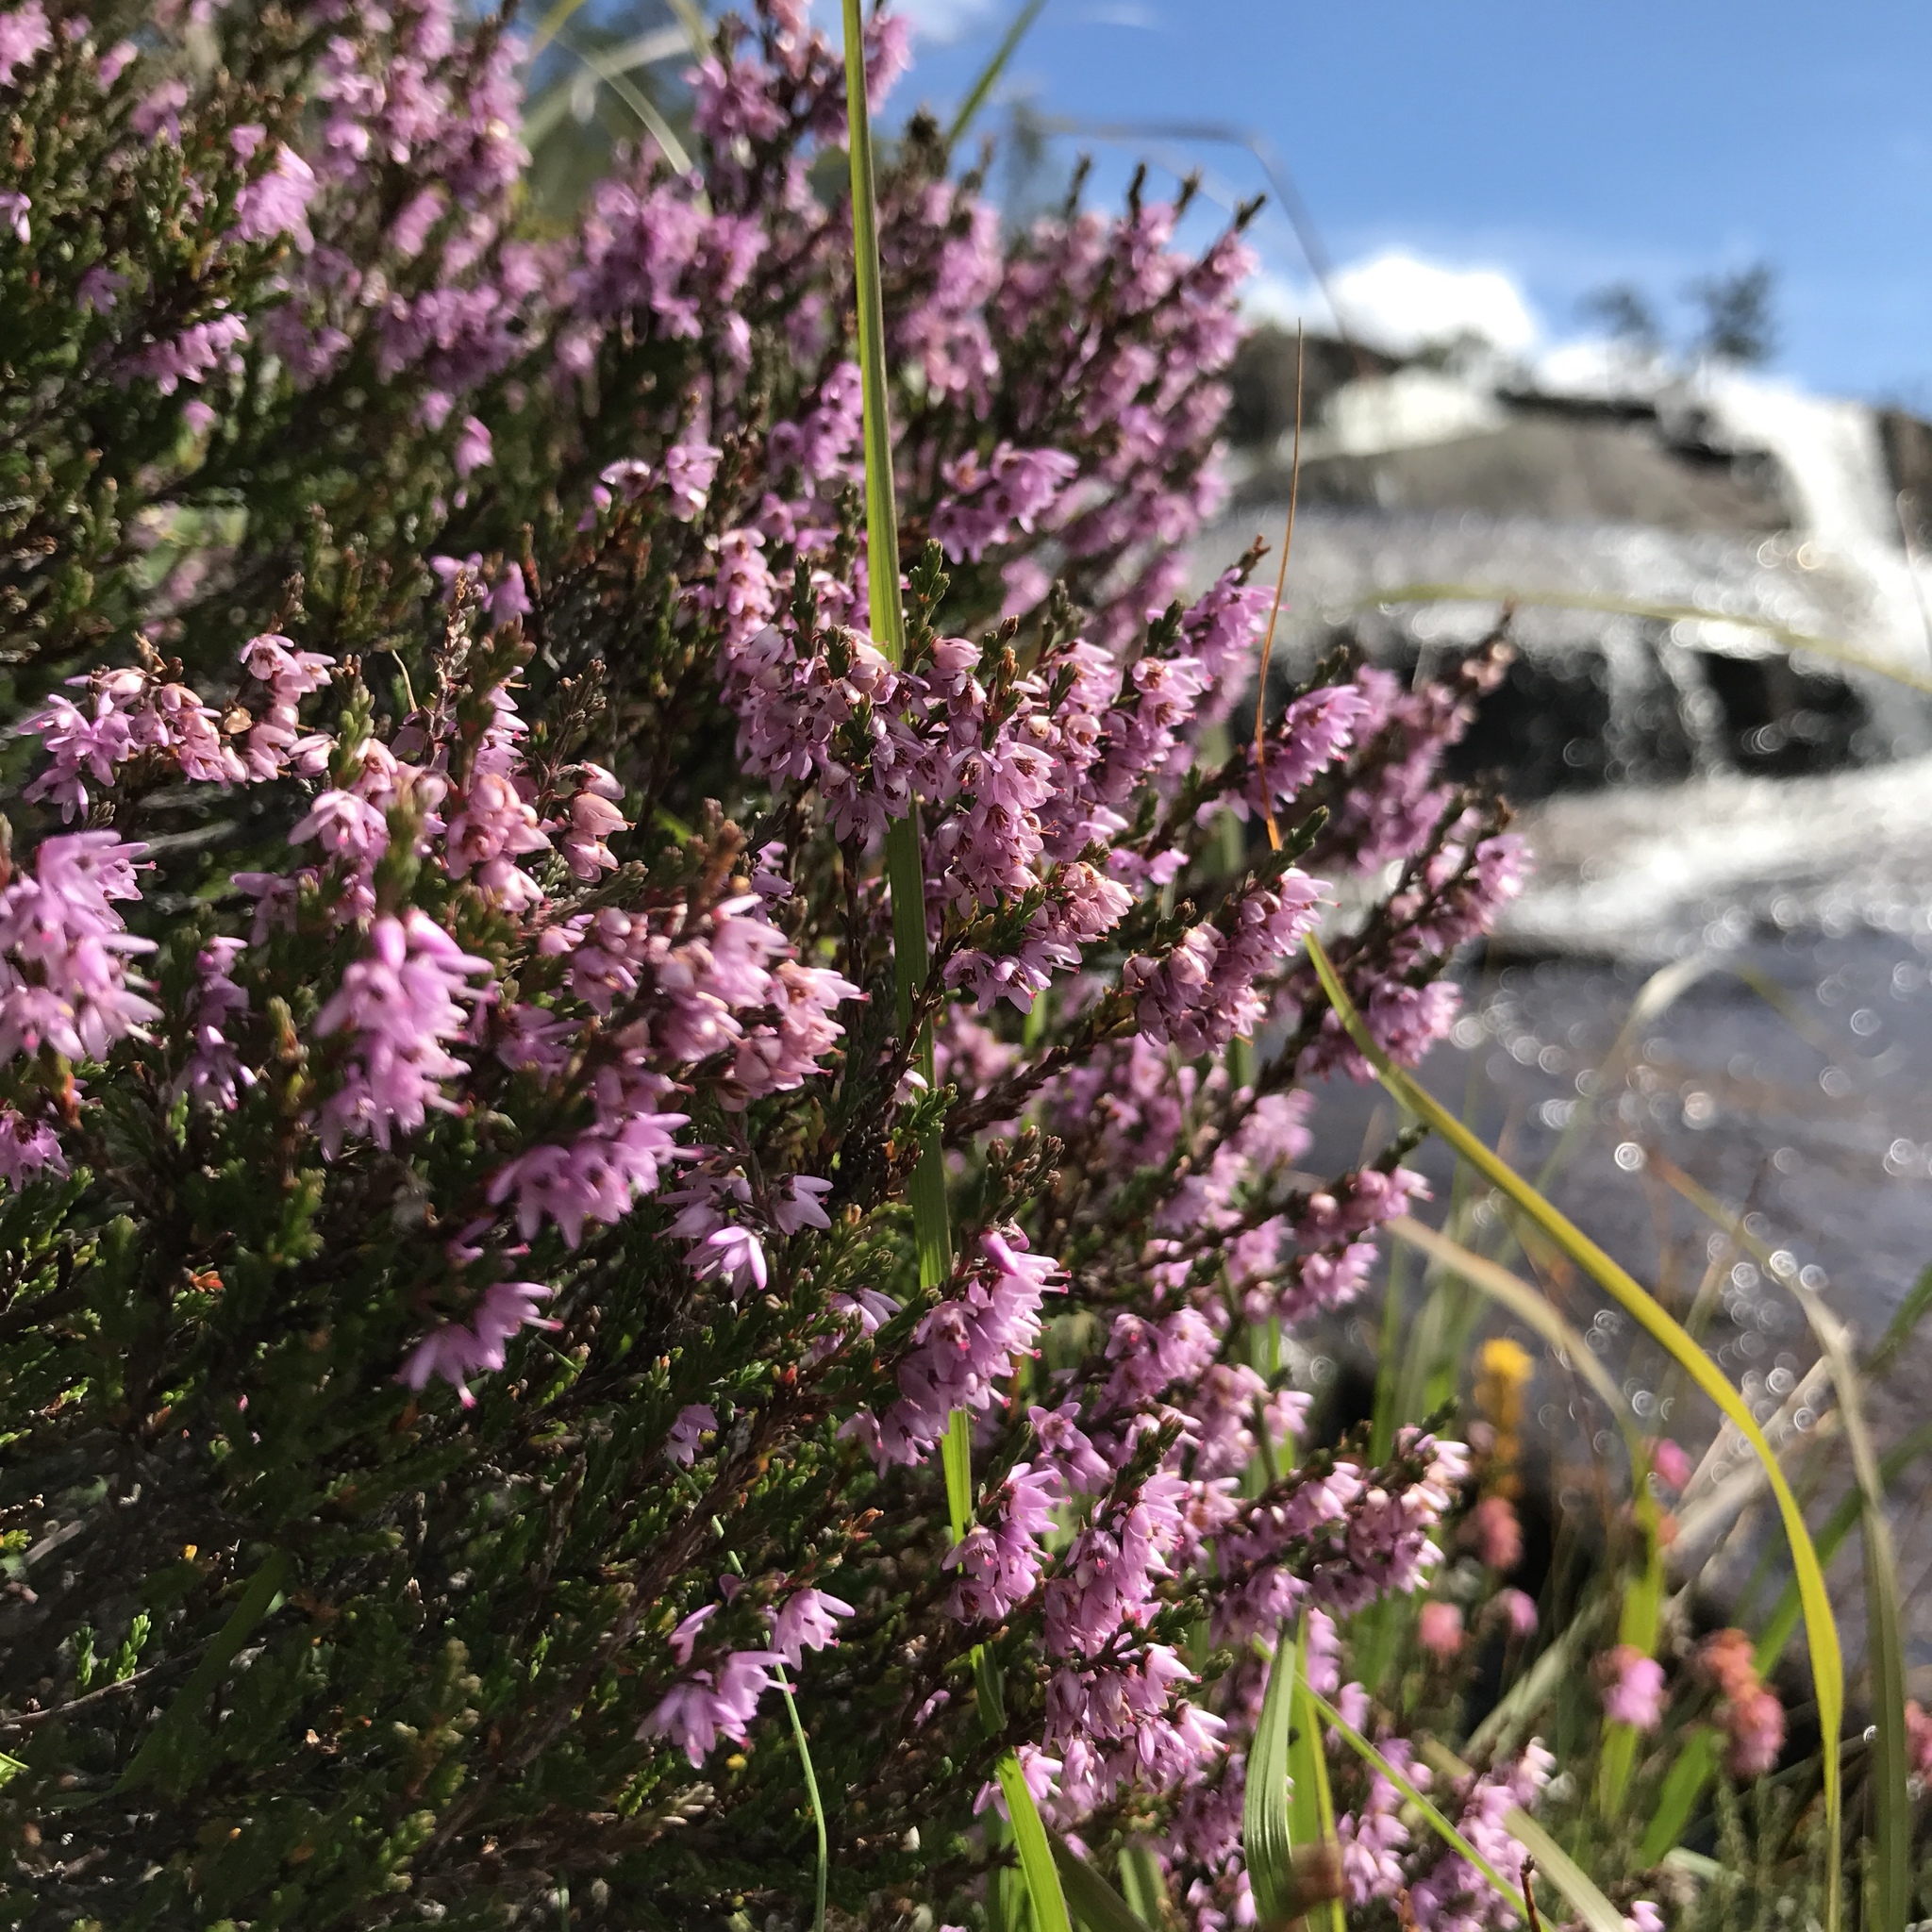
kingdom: Plantae
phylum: Tracheophyta
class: Magnoliopsida
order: Ericales
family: Ericaceae
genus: Calluna
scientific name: Calluna vulgaris
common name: Heather
